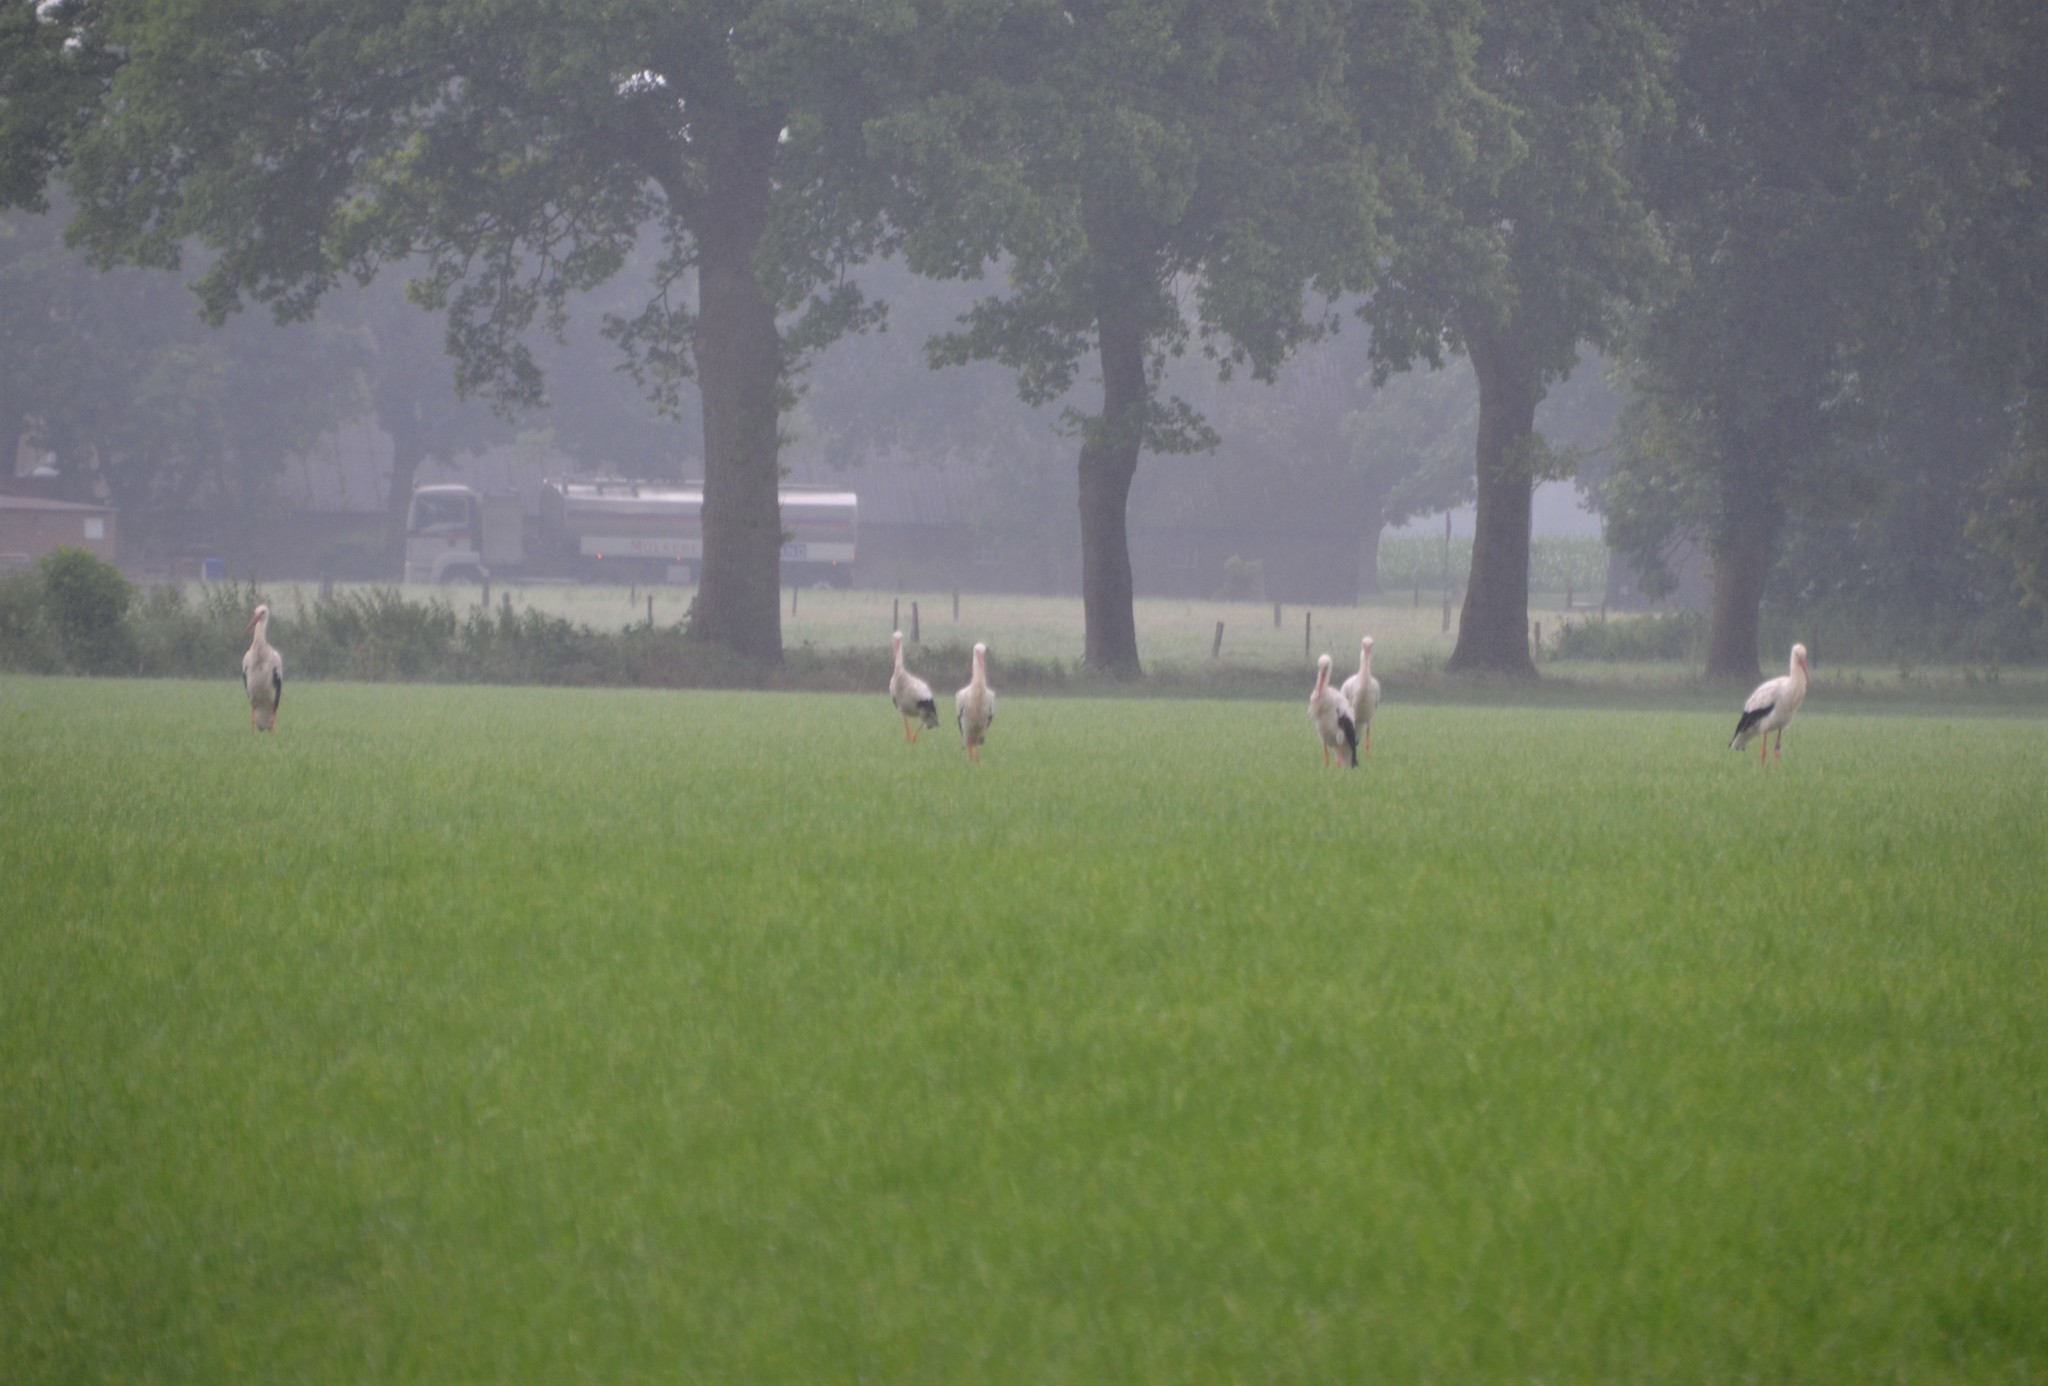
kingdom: Animalia
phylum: Chordata
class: Aves
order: Ciconiiformes
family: Ciconiidae
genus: Ciconia
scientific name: Ciconia ciconia
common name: White stork
